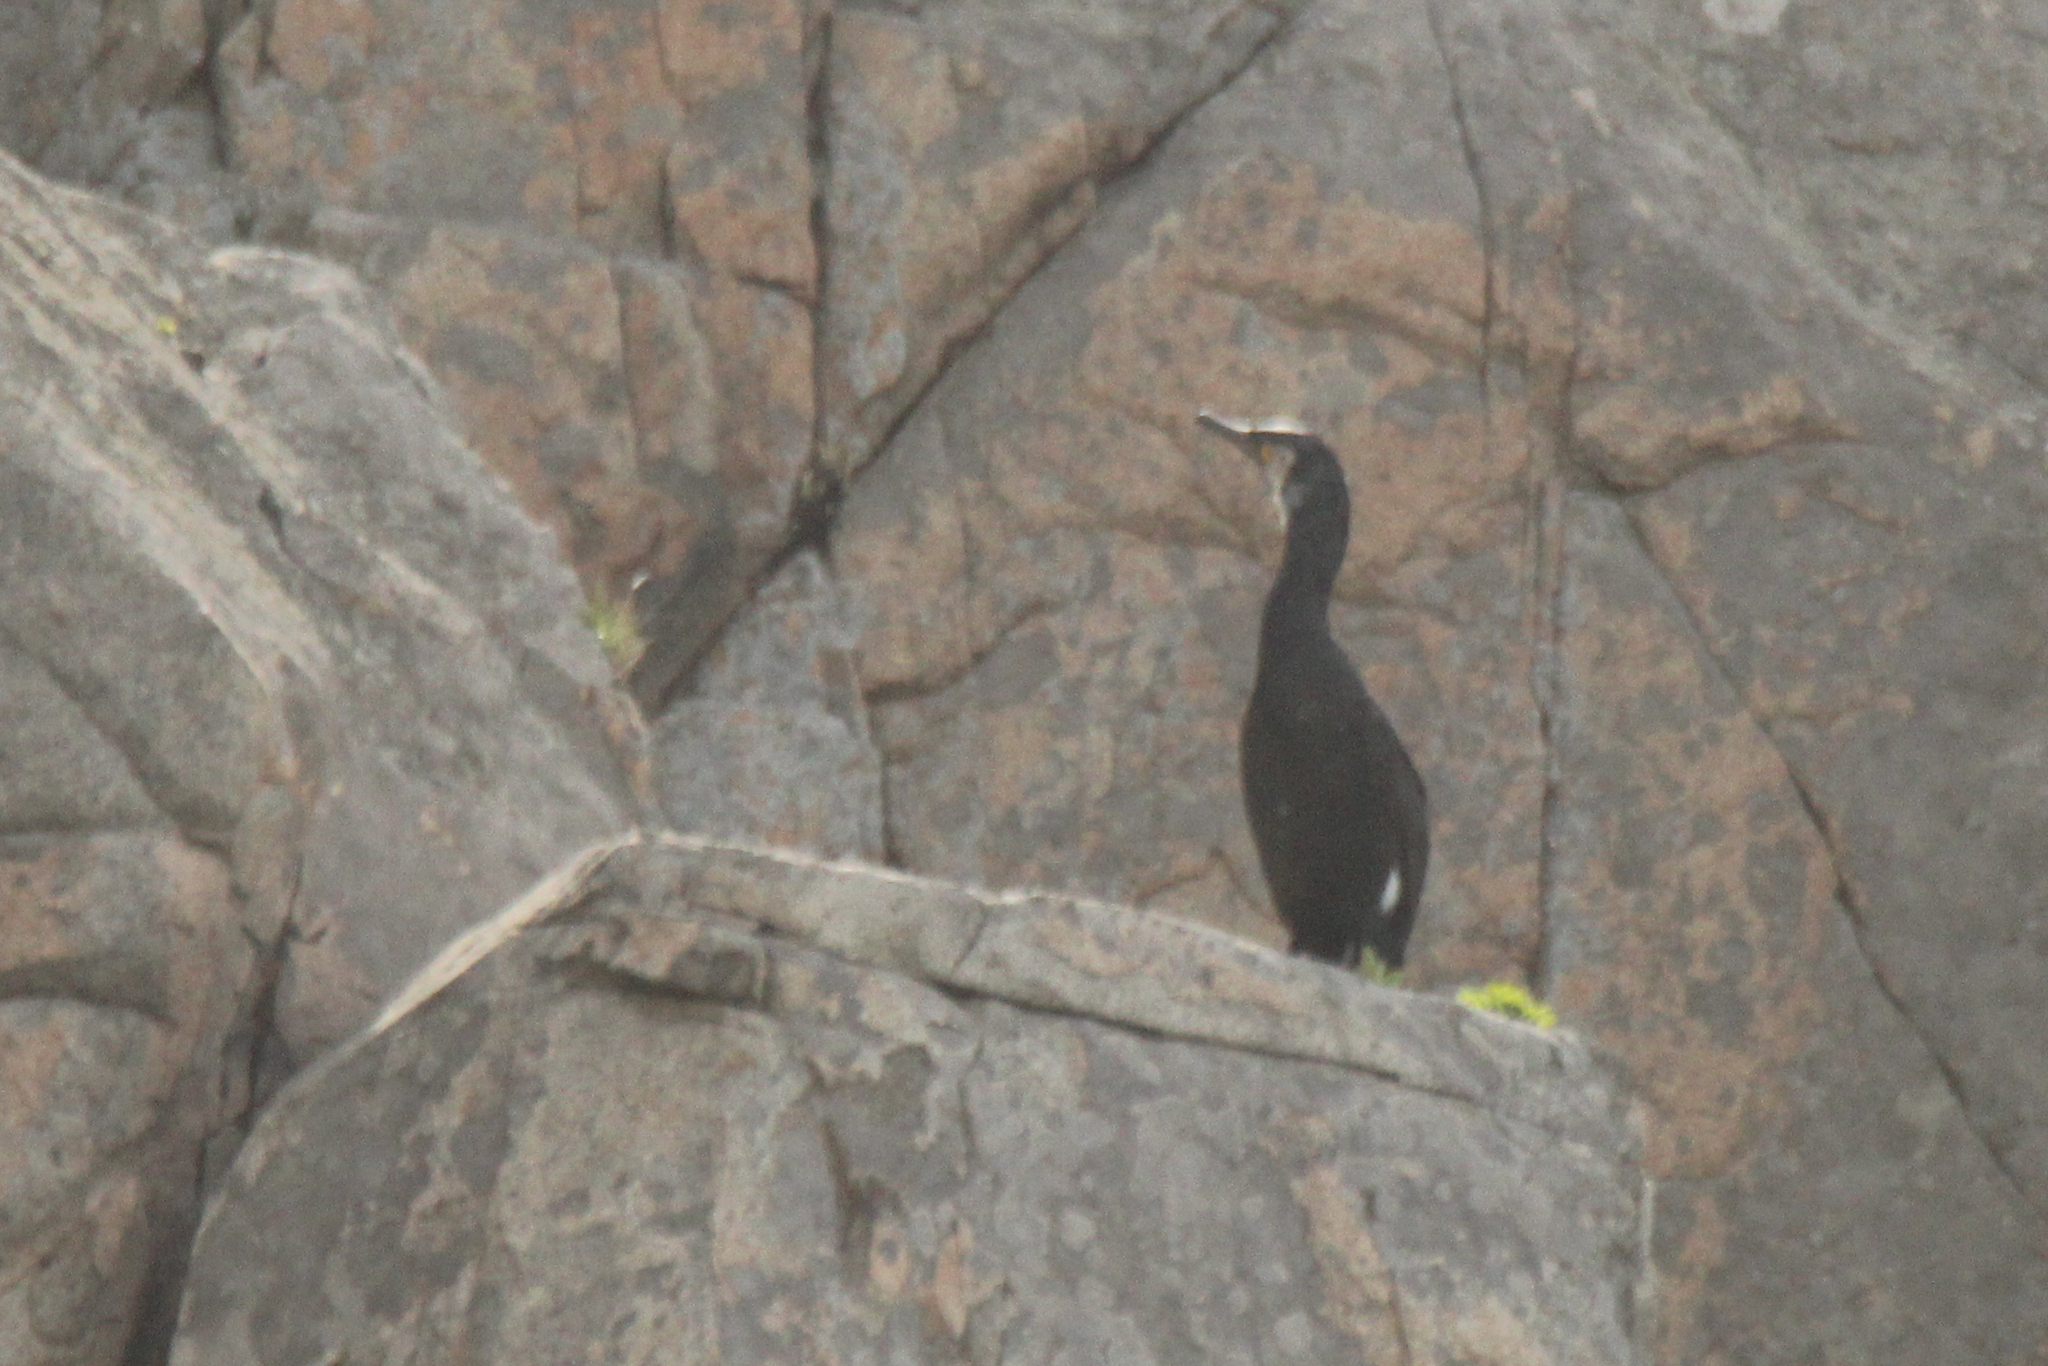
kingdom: Animalia
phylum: Chordata
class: Aves
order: Suliformes
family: Phalacrocoracidae
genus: Phalacrocorax
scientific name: Phalacrocorax capillatus
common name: Japanese cormorant
